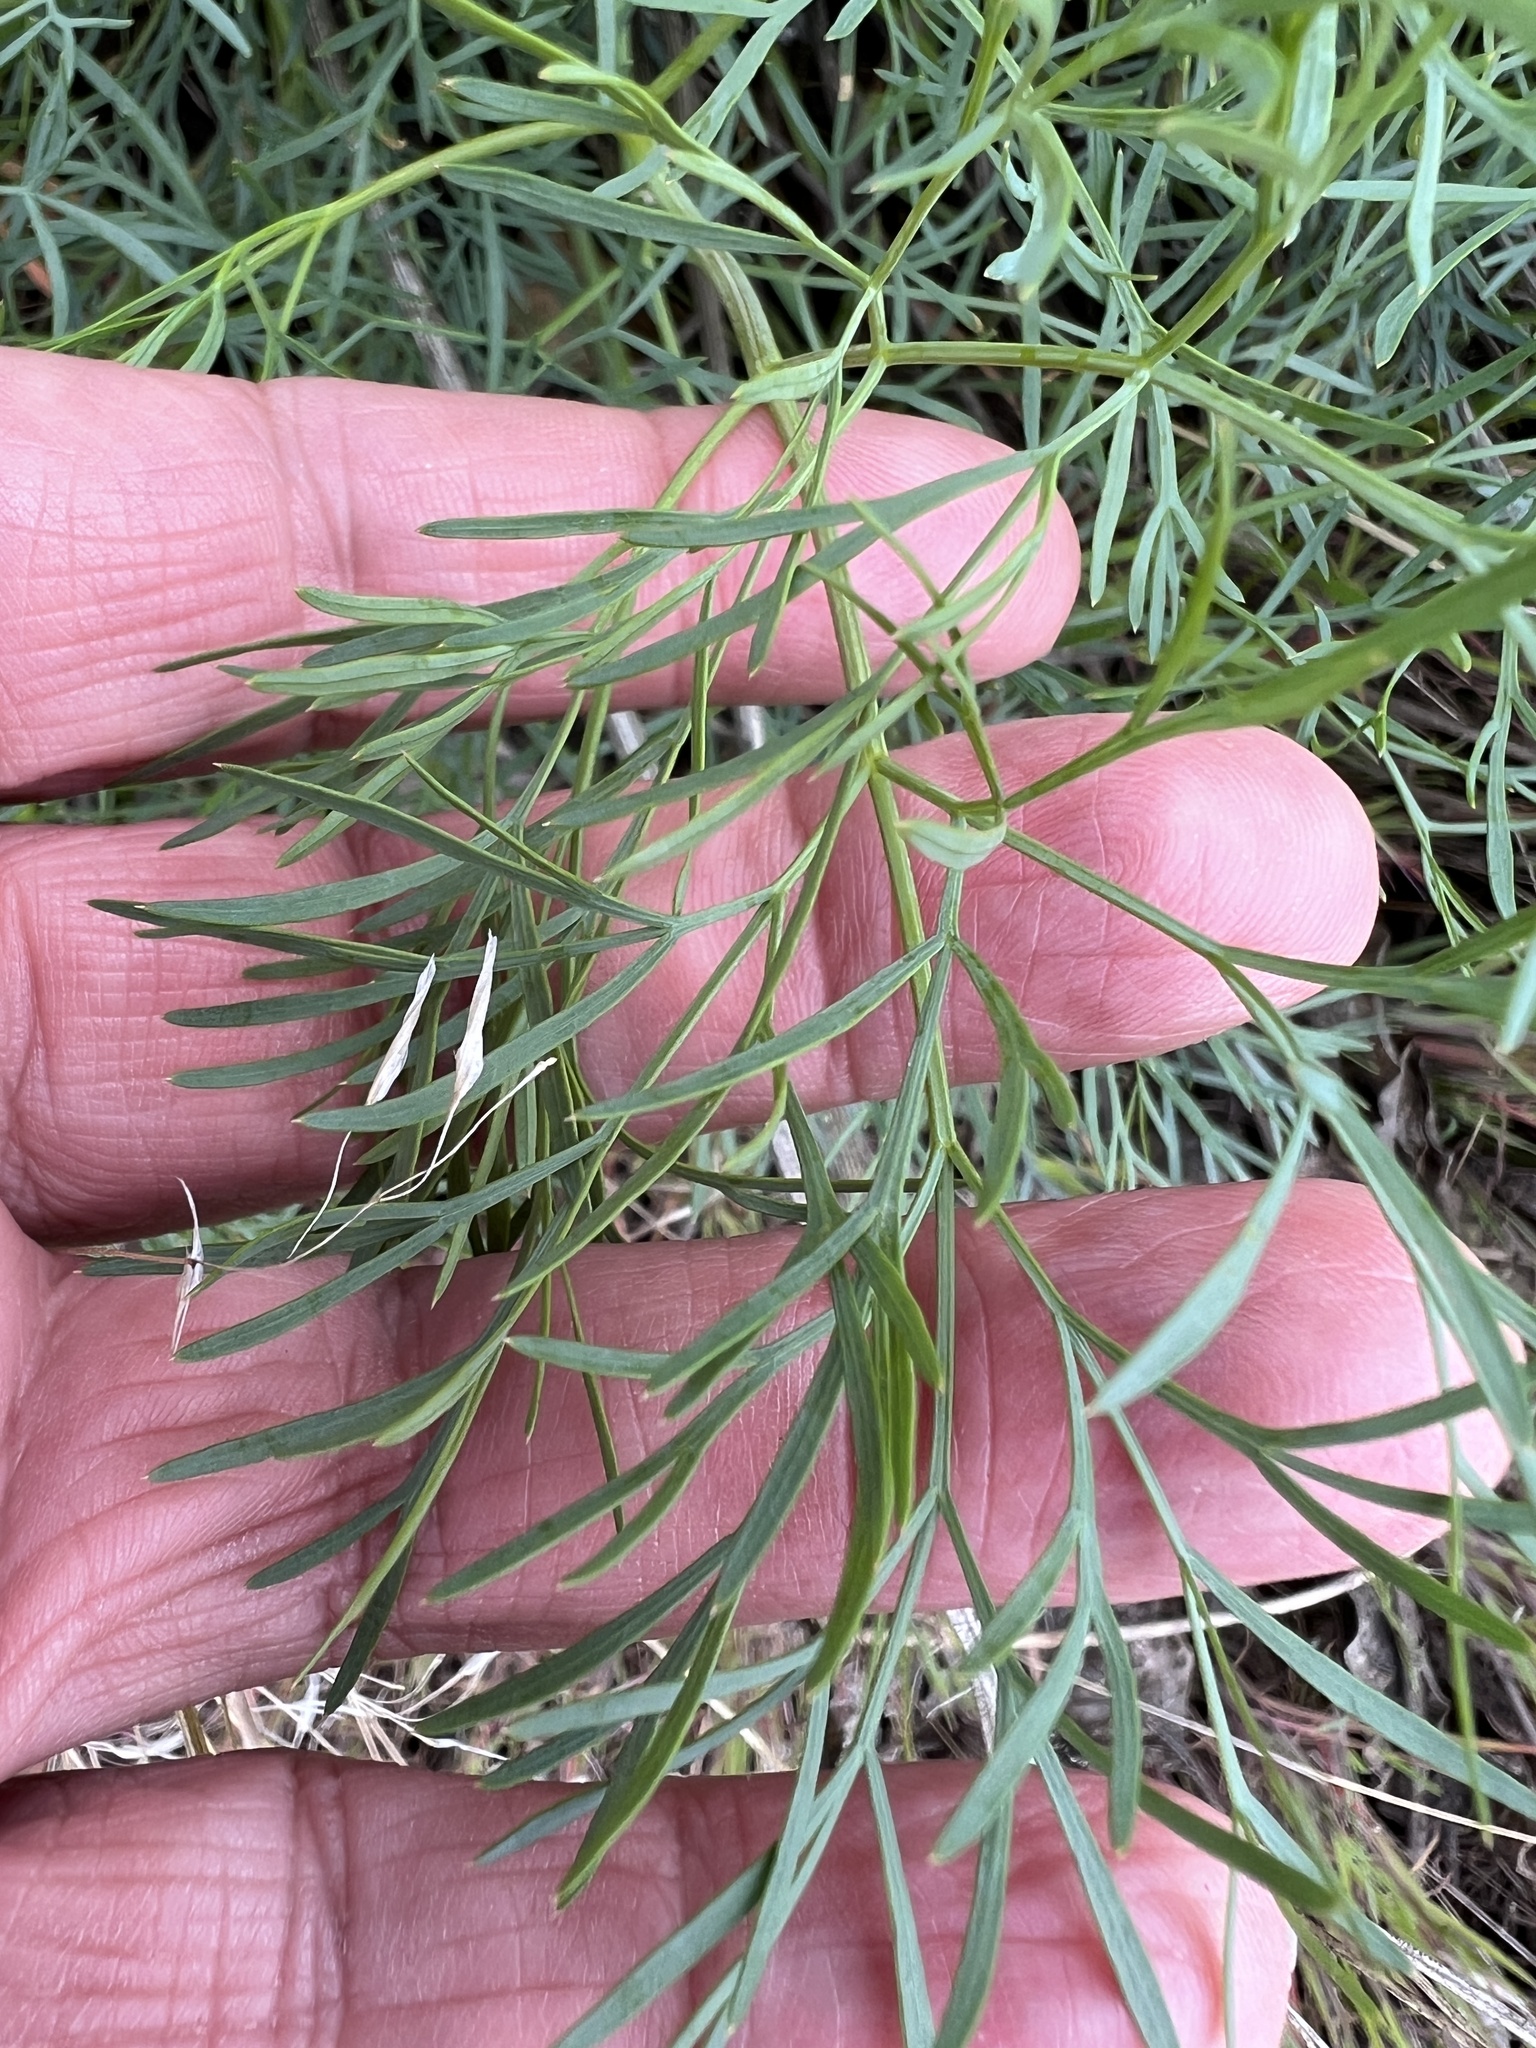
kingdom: Plantae
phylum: Tracheophyta
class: Magnoliopsida
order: Apiales
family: Apiaceae
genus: Lomatium
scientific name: Lomatium laevigatum
